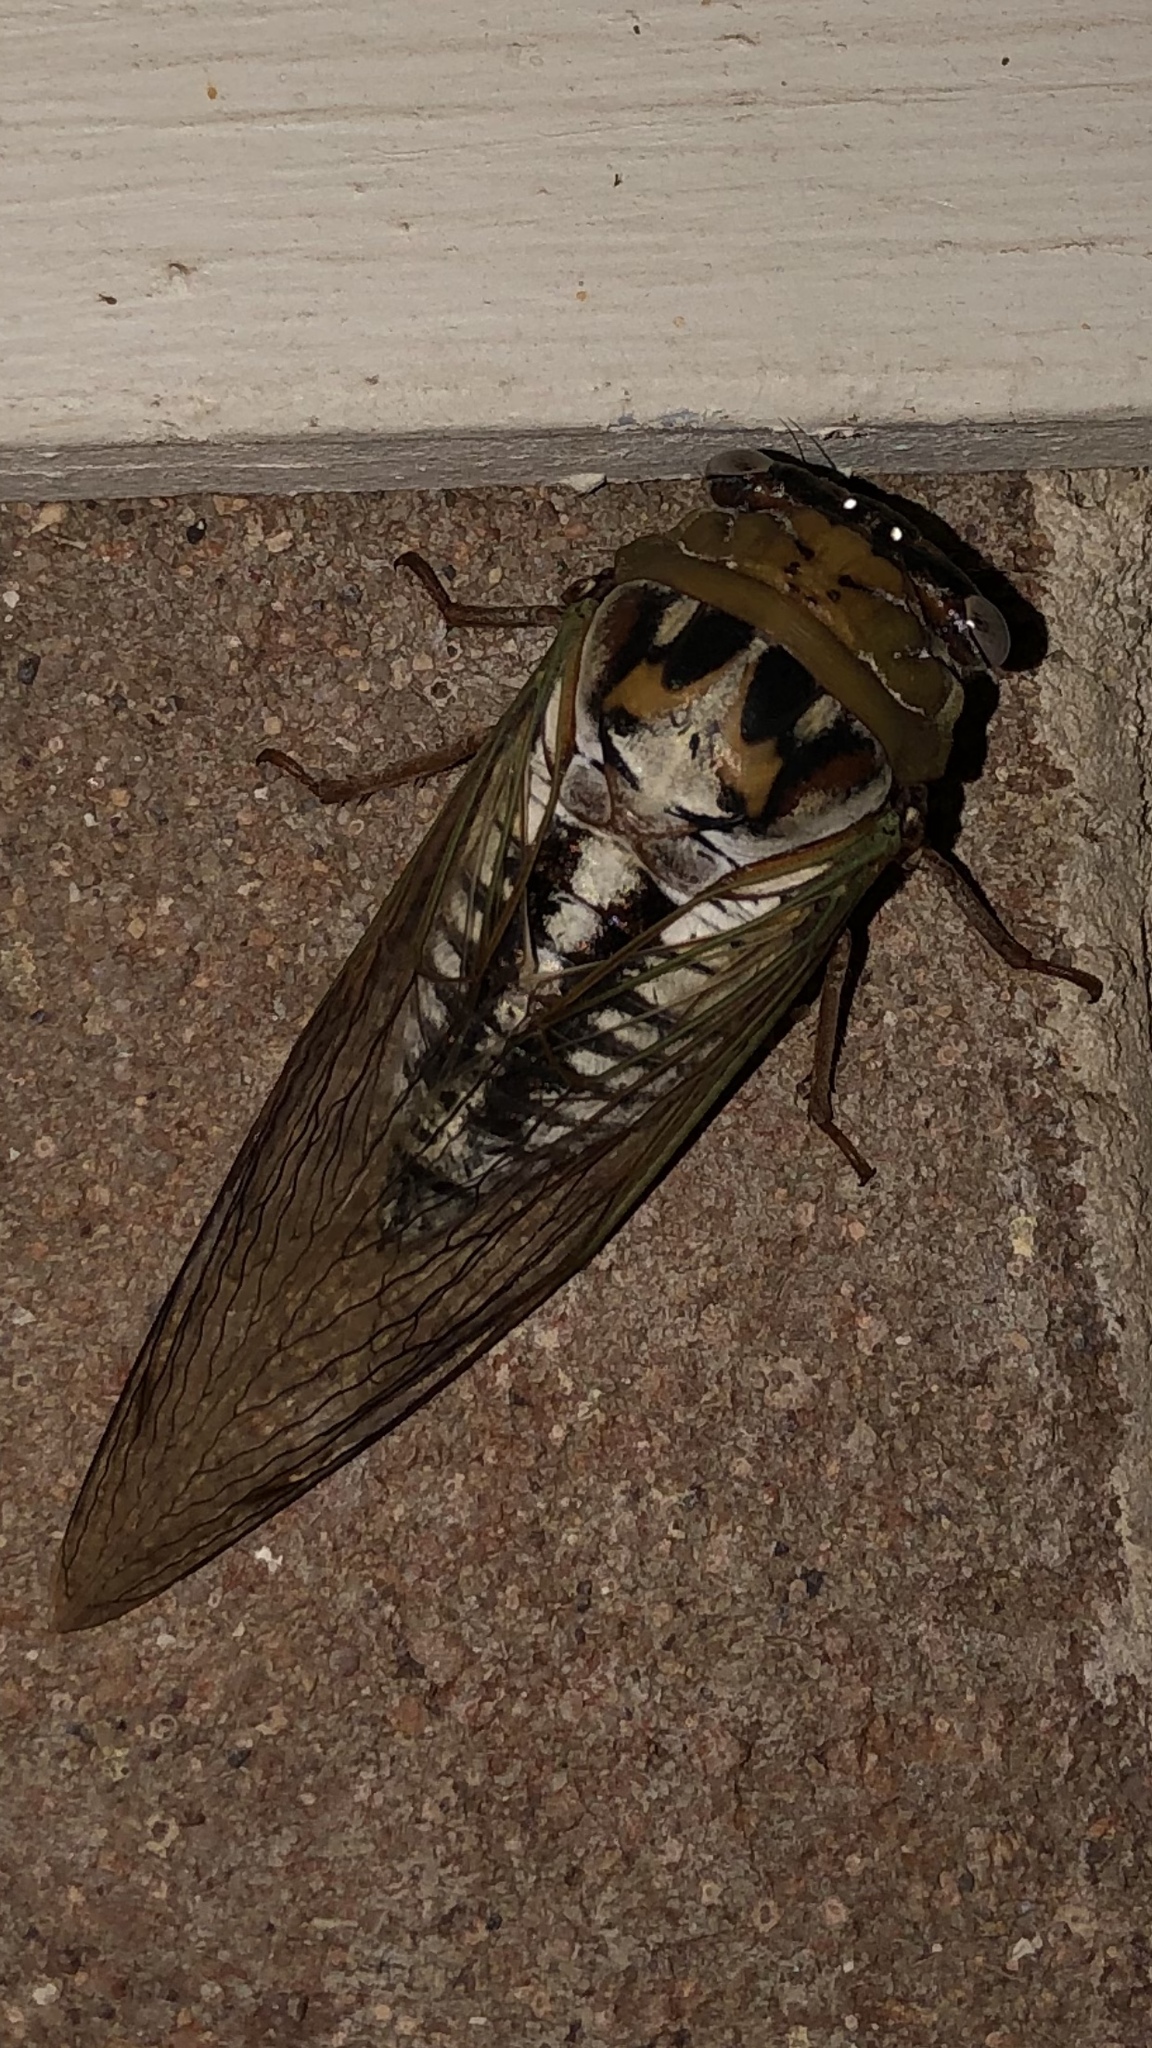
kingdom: Animalia
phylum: Arthropoda
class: Insecta
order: Hemiptera
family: Cicadidae
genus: Megatibicen
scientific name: Megatibicen dealbatus
